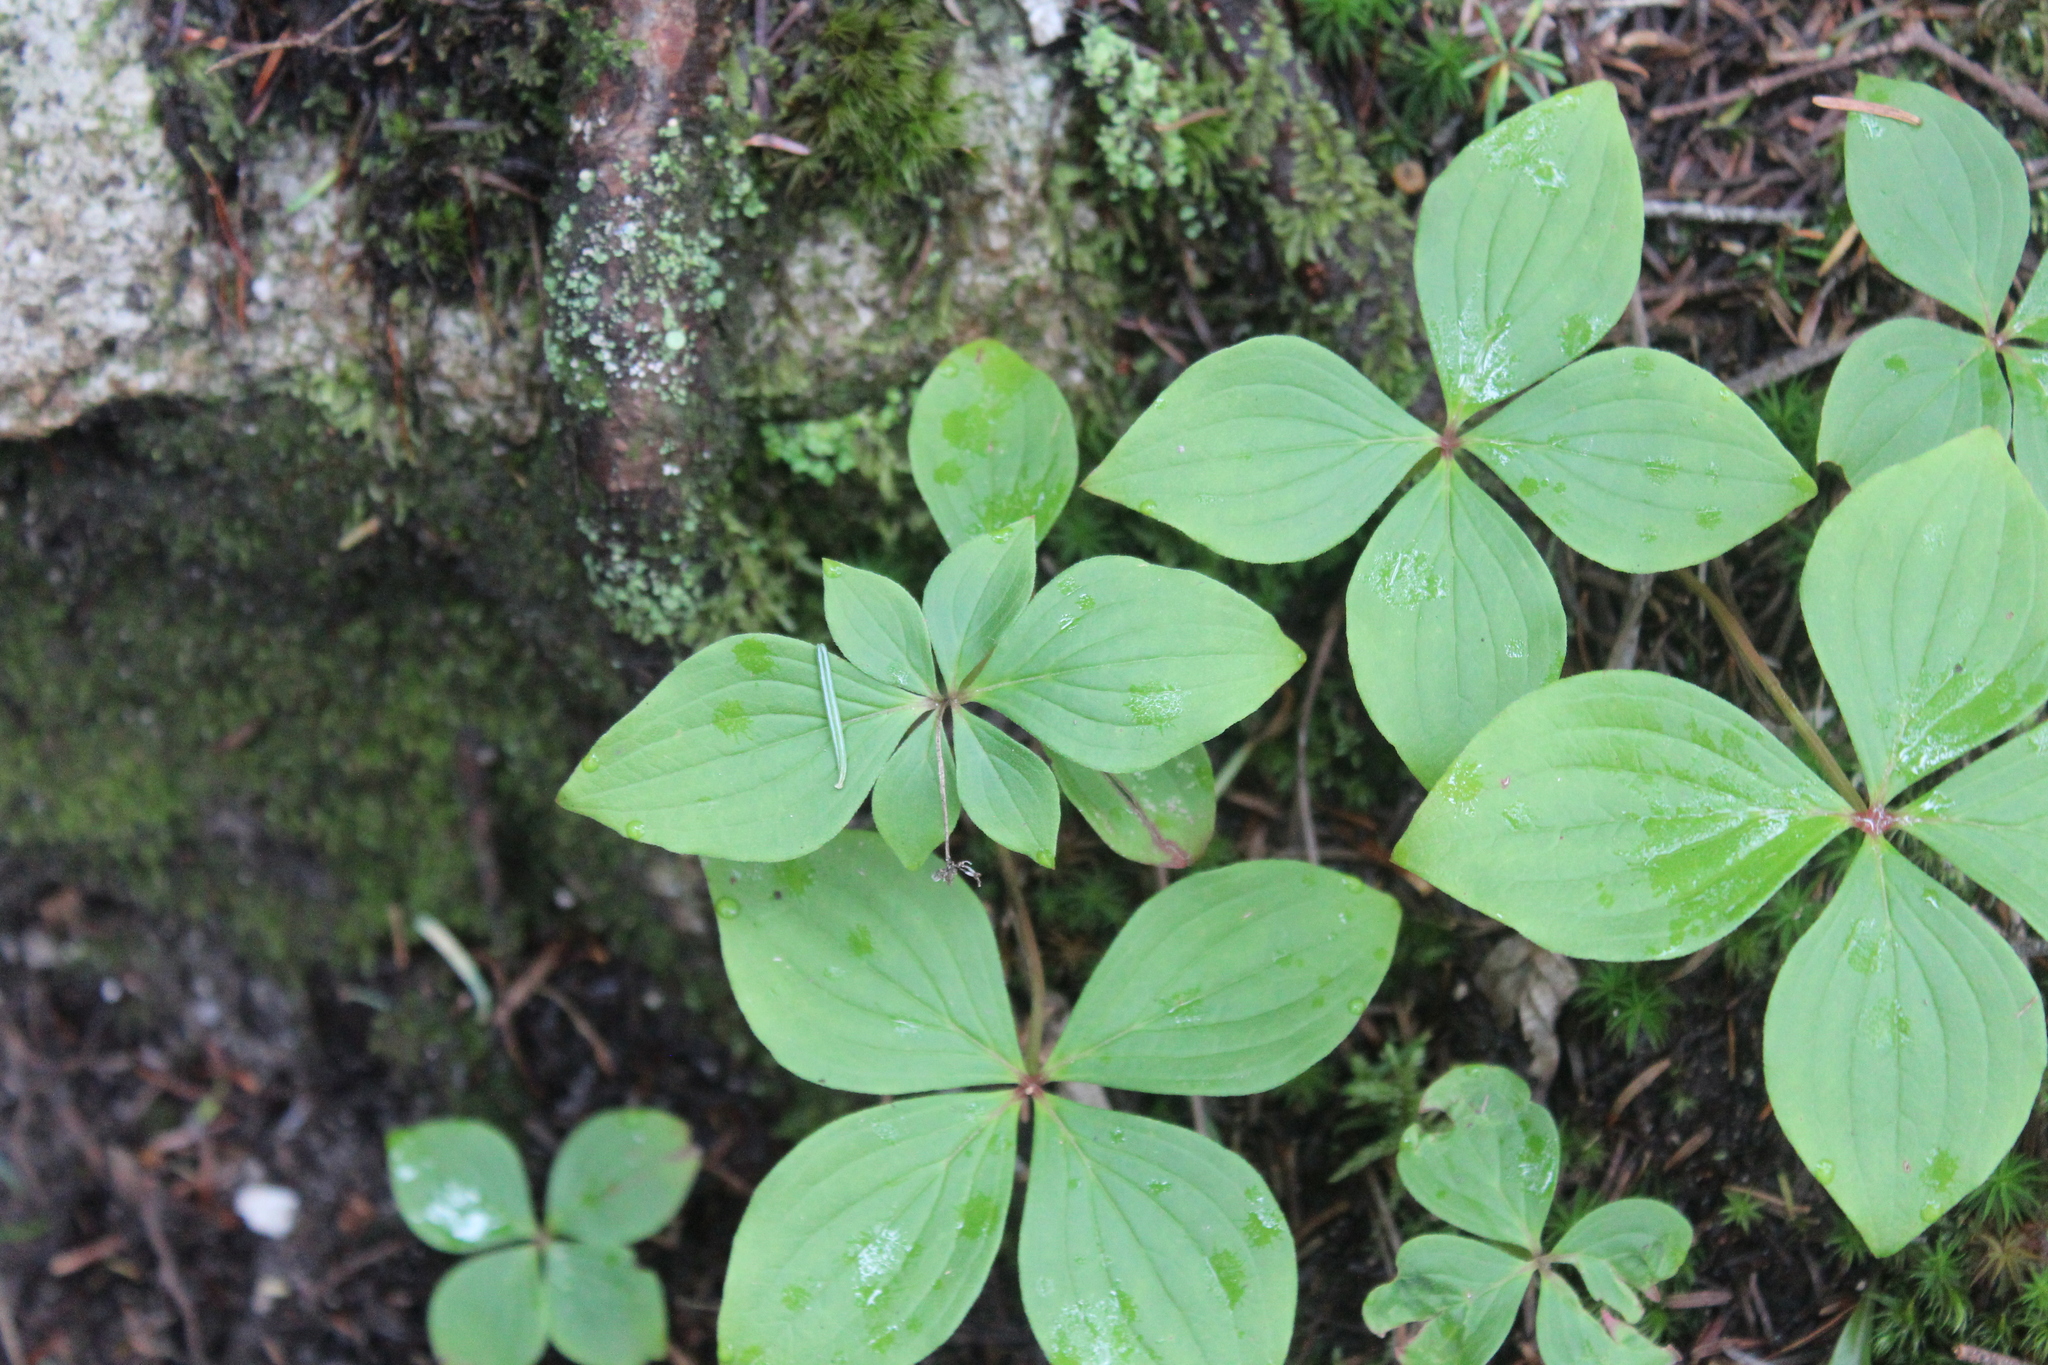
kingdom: Plantae
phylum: Tracheophyta
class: Magnoliopsida
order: Cornales
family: Cornaceae
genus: Cornus
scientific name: Cornus canadensis
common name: Creeping dogwood
